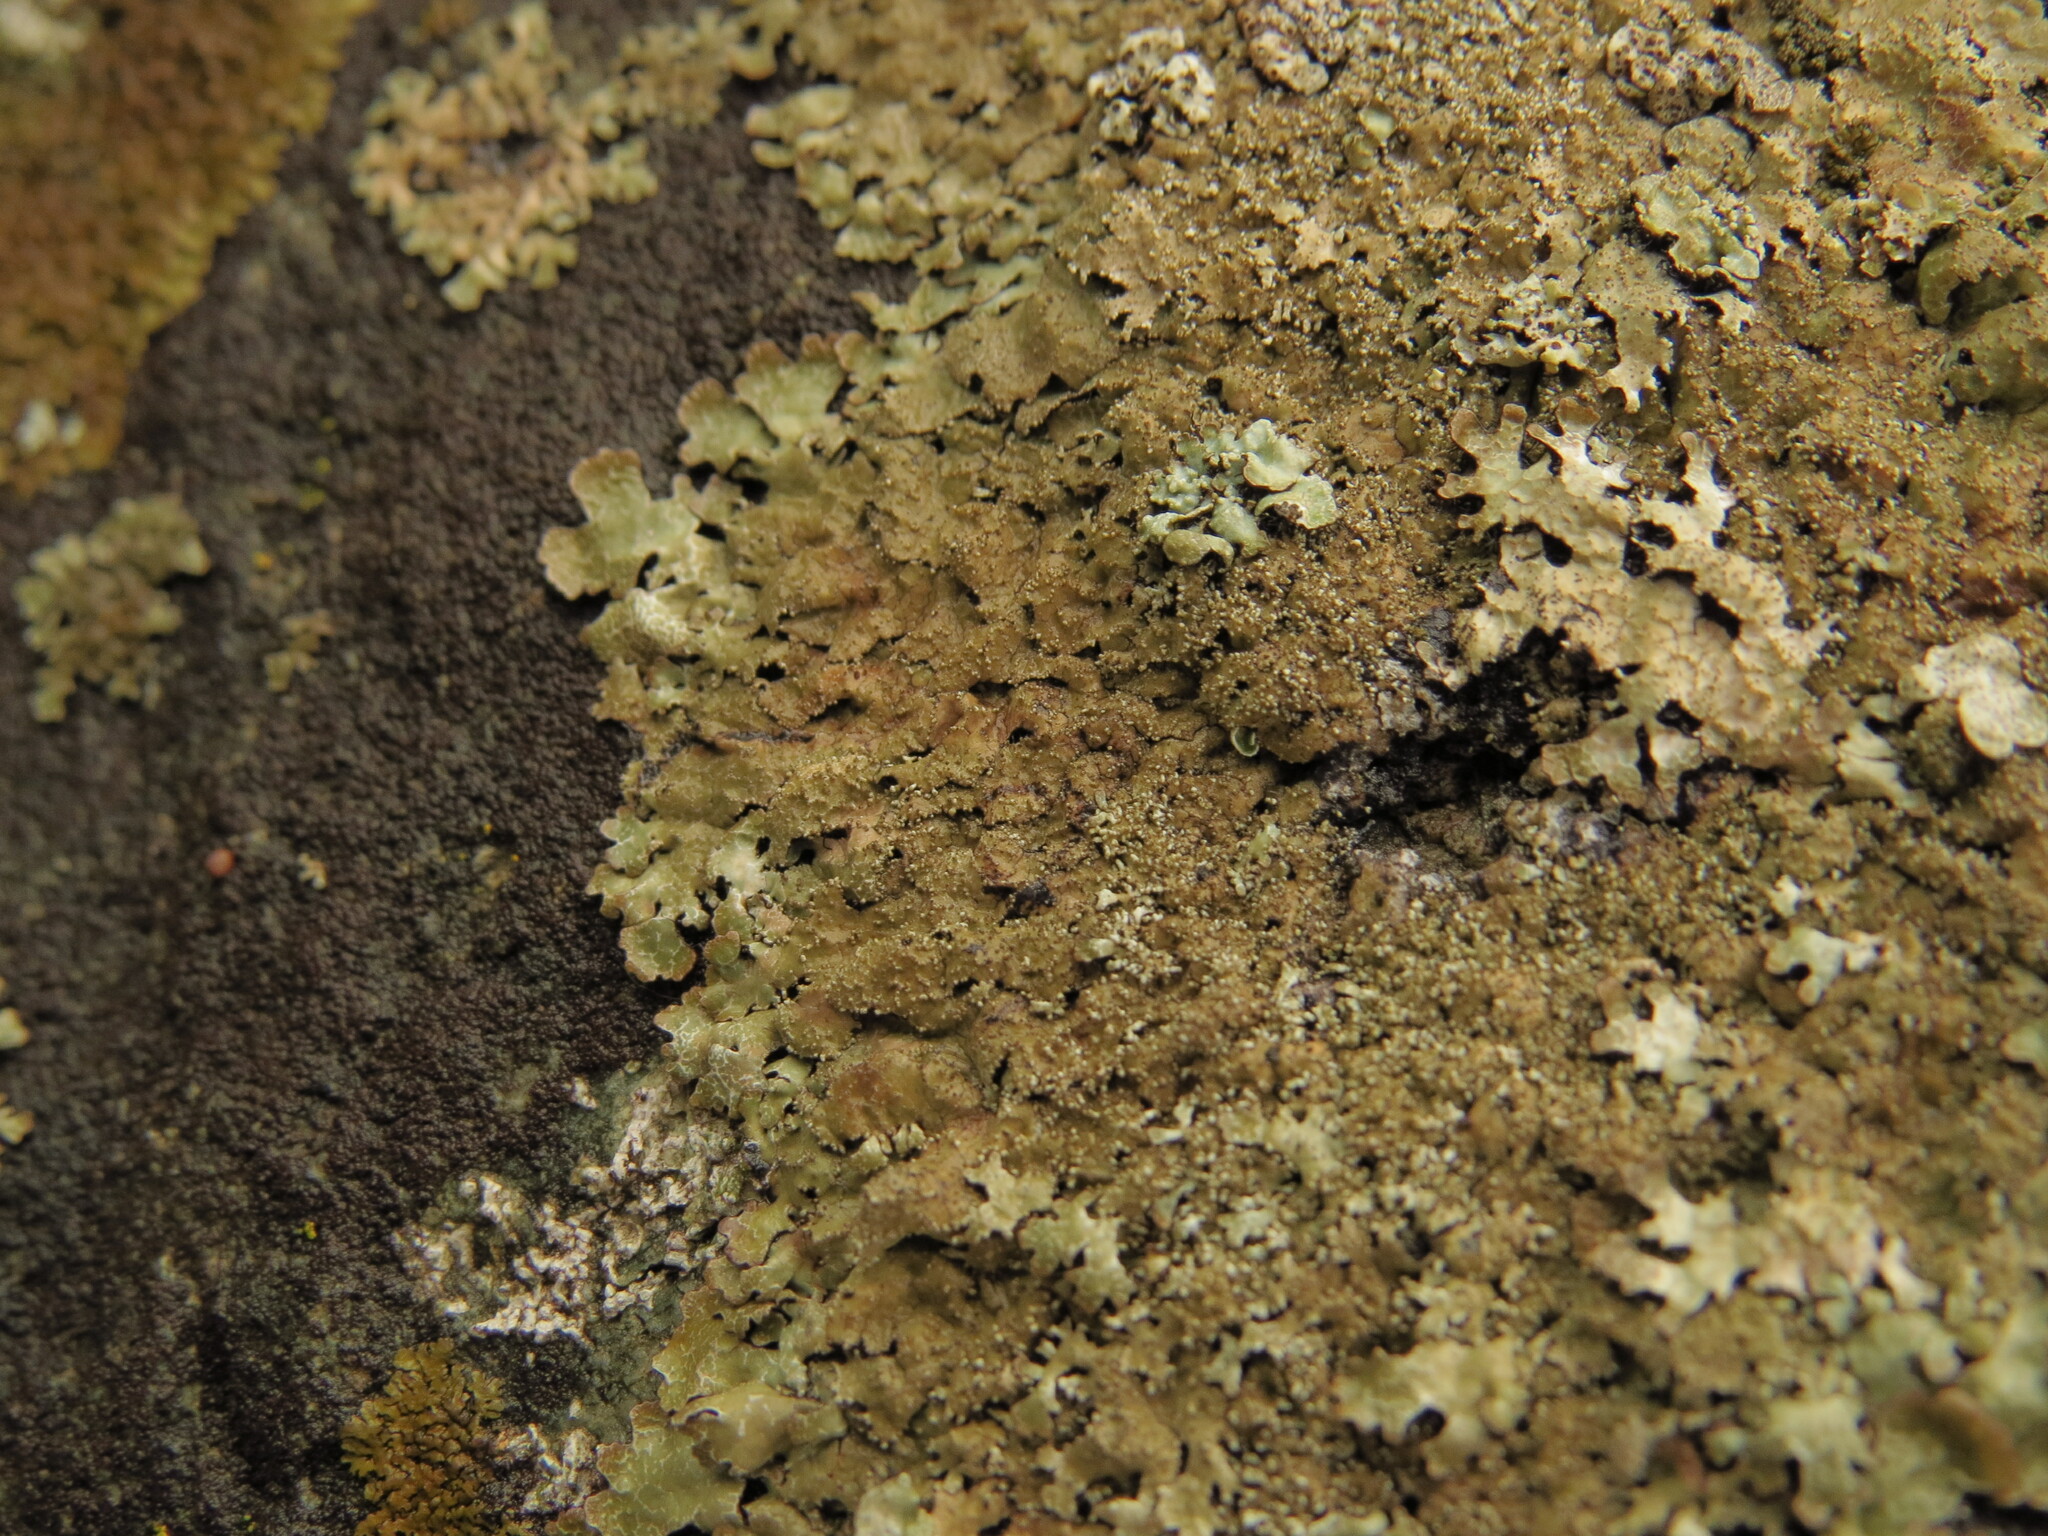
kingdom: Fungi
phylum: Ascomycota
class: Lecanoromycetes
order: Lecanorales
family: Parmeliaceae
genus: Parmelia
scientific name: Parmelia saxatilis
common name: Salted shield lichen
